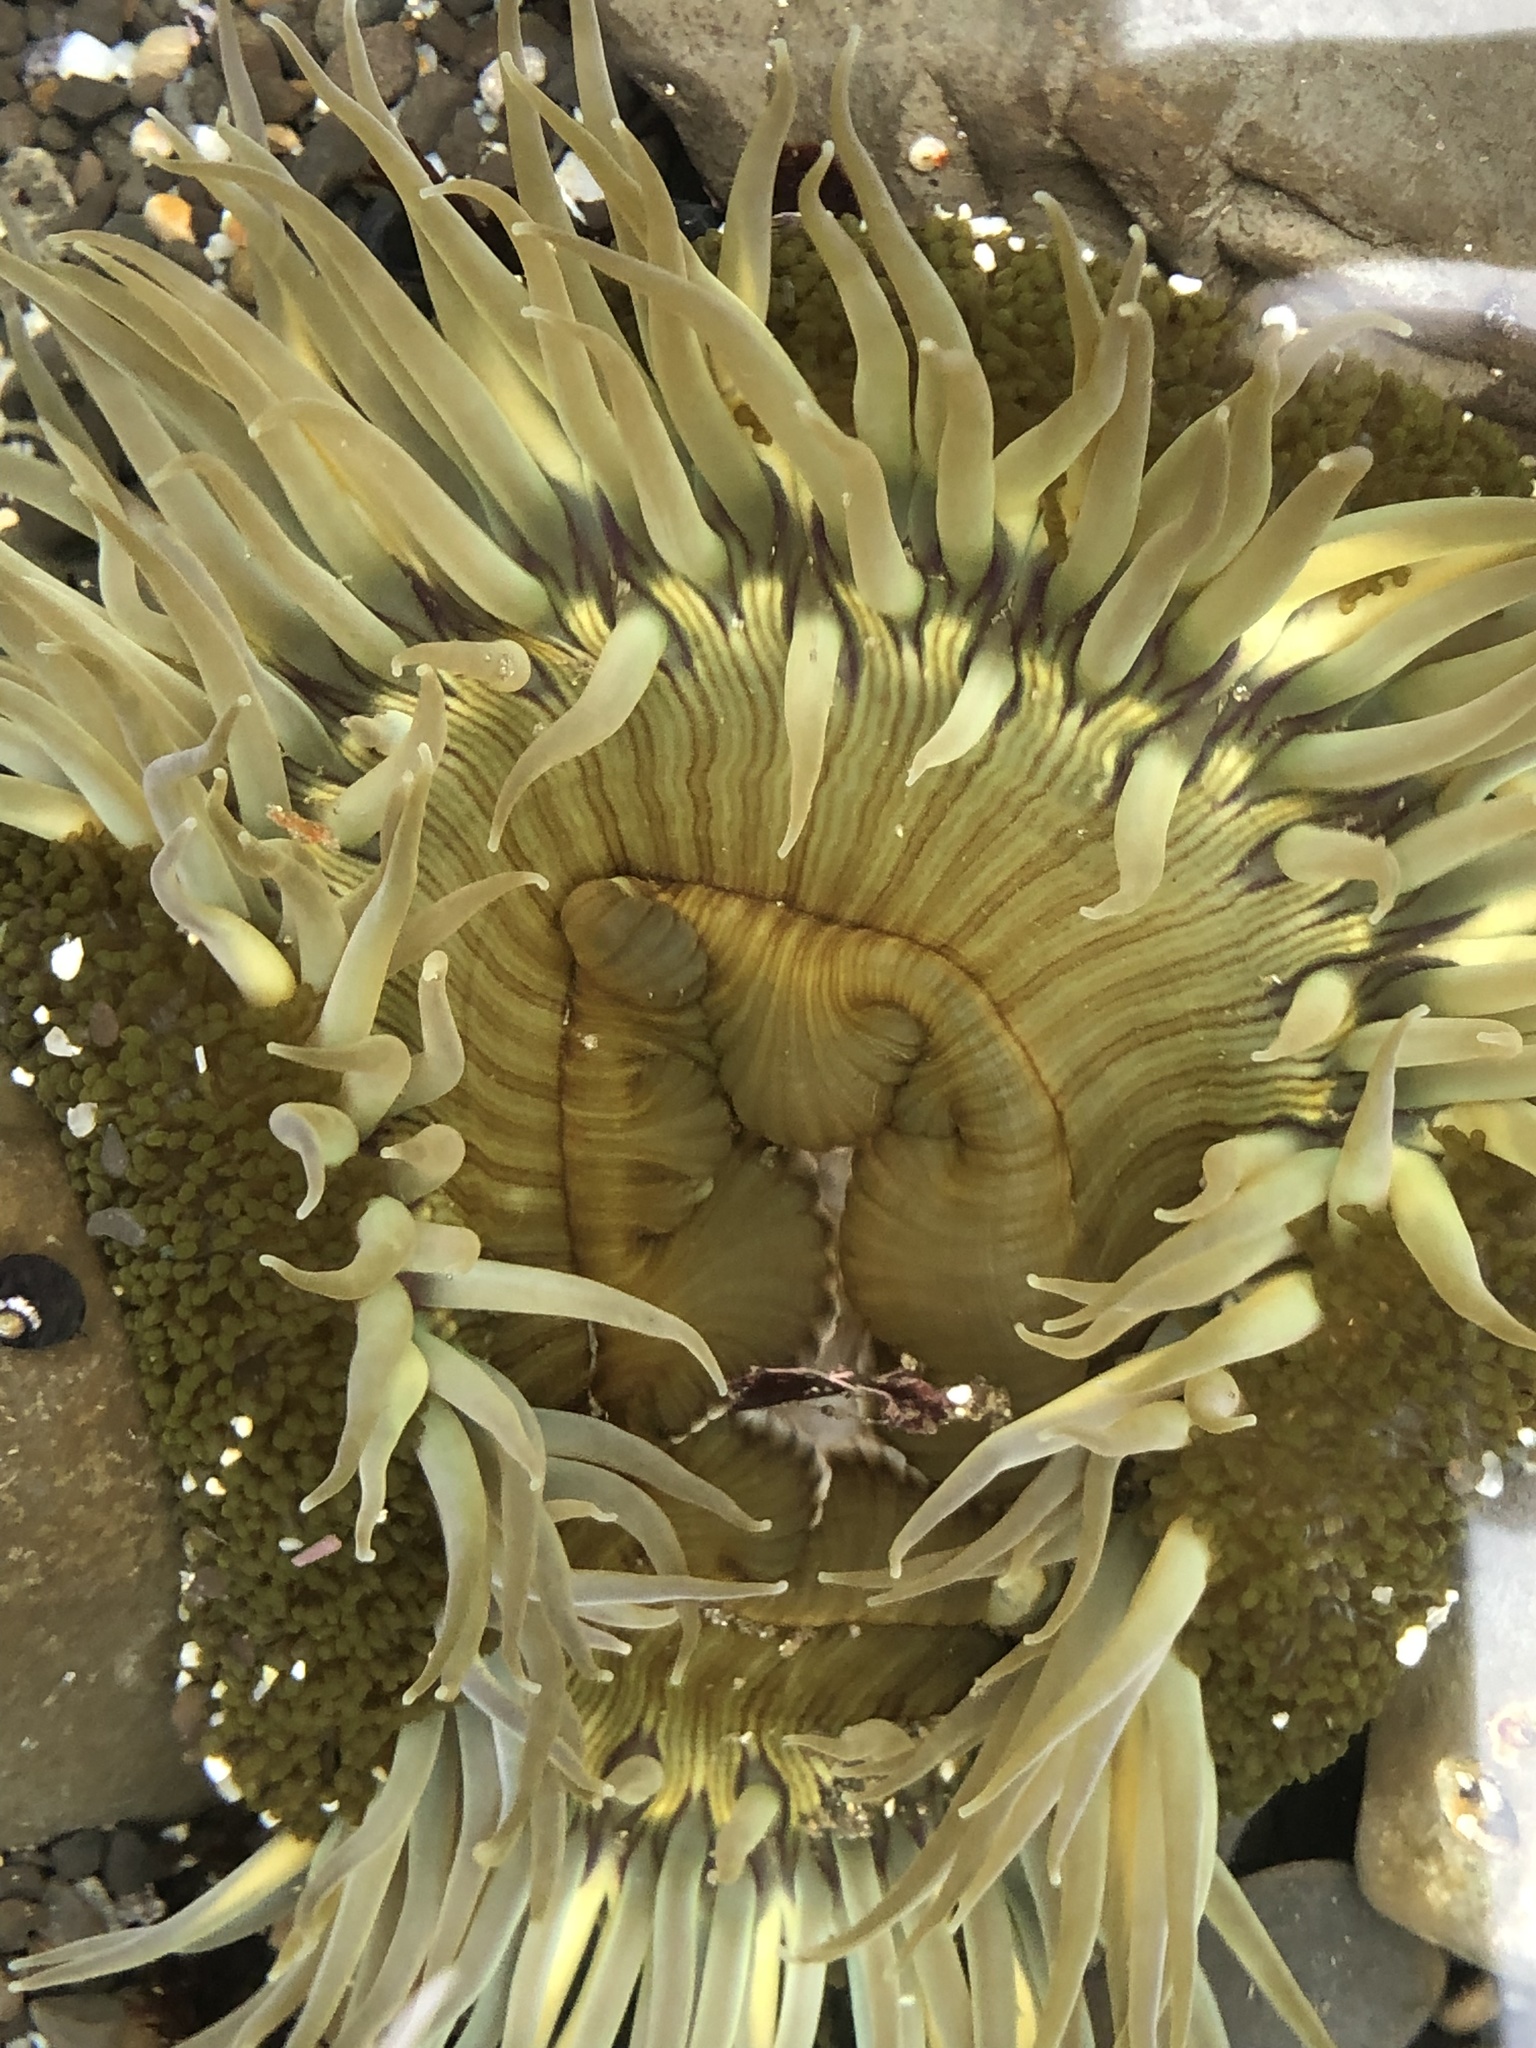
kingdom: Animalia
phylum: Cnidaria
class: Anthozoa
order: Actiniaria
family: Actiniidae
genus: Anthopleura
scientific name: Anthopleura sola
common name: Sun anemone
